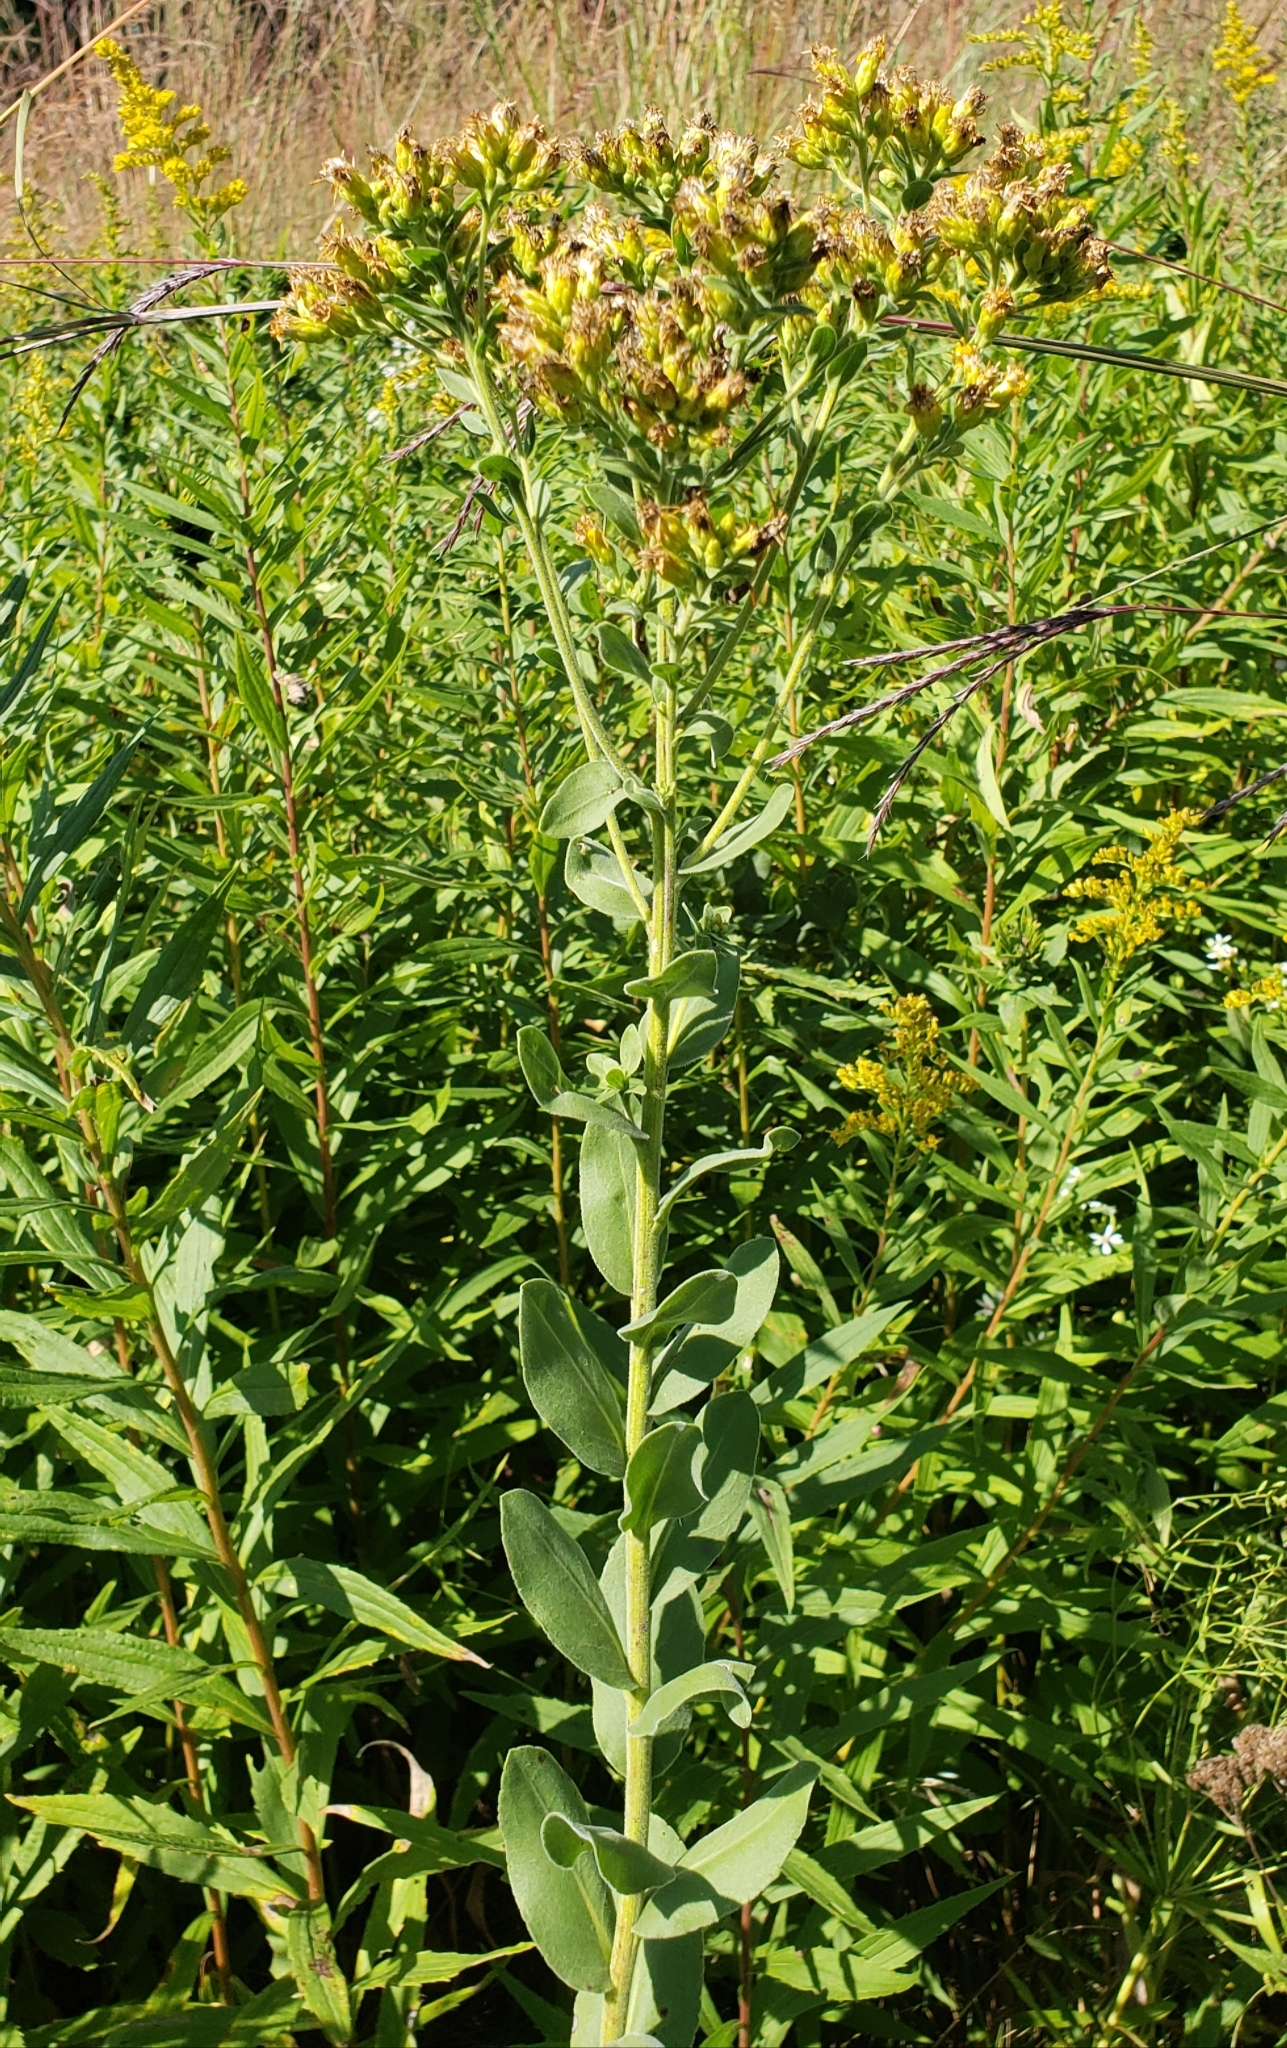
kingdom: Plantae
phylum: Tracheophyta
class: Magnoliopsida
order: Asterales
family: Asteraceae
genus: Solidago
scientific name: Solidago rigida
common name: Rigid goldenrod
